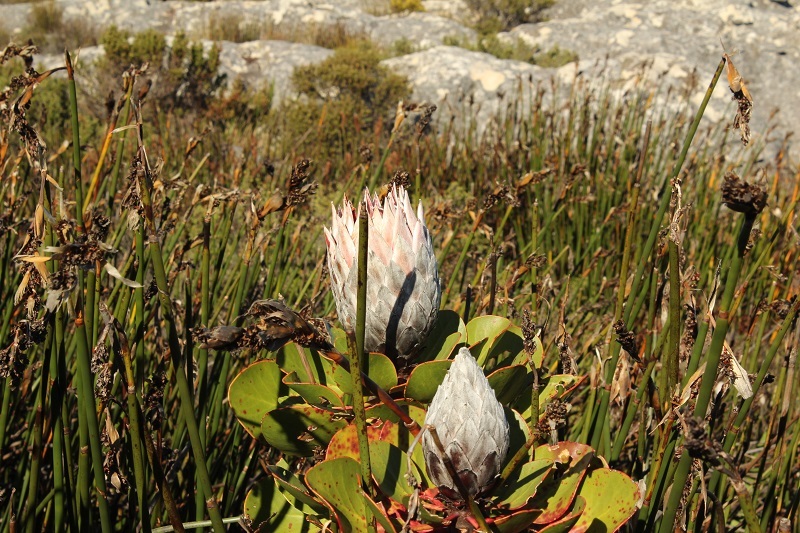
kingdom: Plantae
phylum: Tracheophyta
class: Magnoliopsida
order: Proteales
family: Proteaceae
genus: Protea
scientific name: Protea cynaroides
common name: King protea
